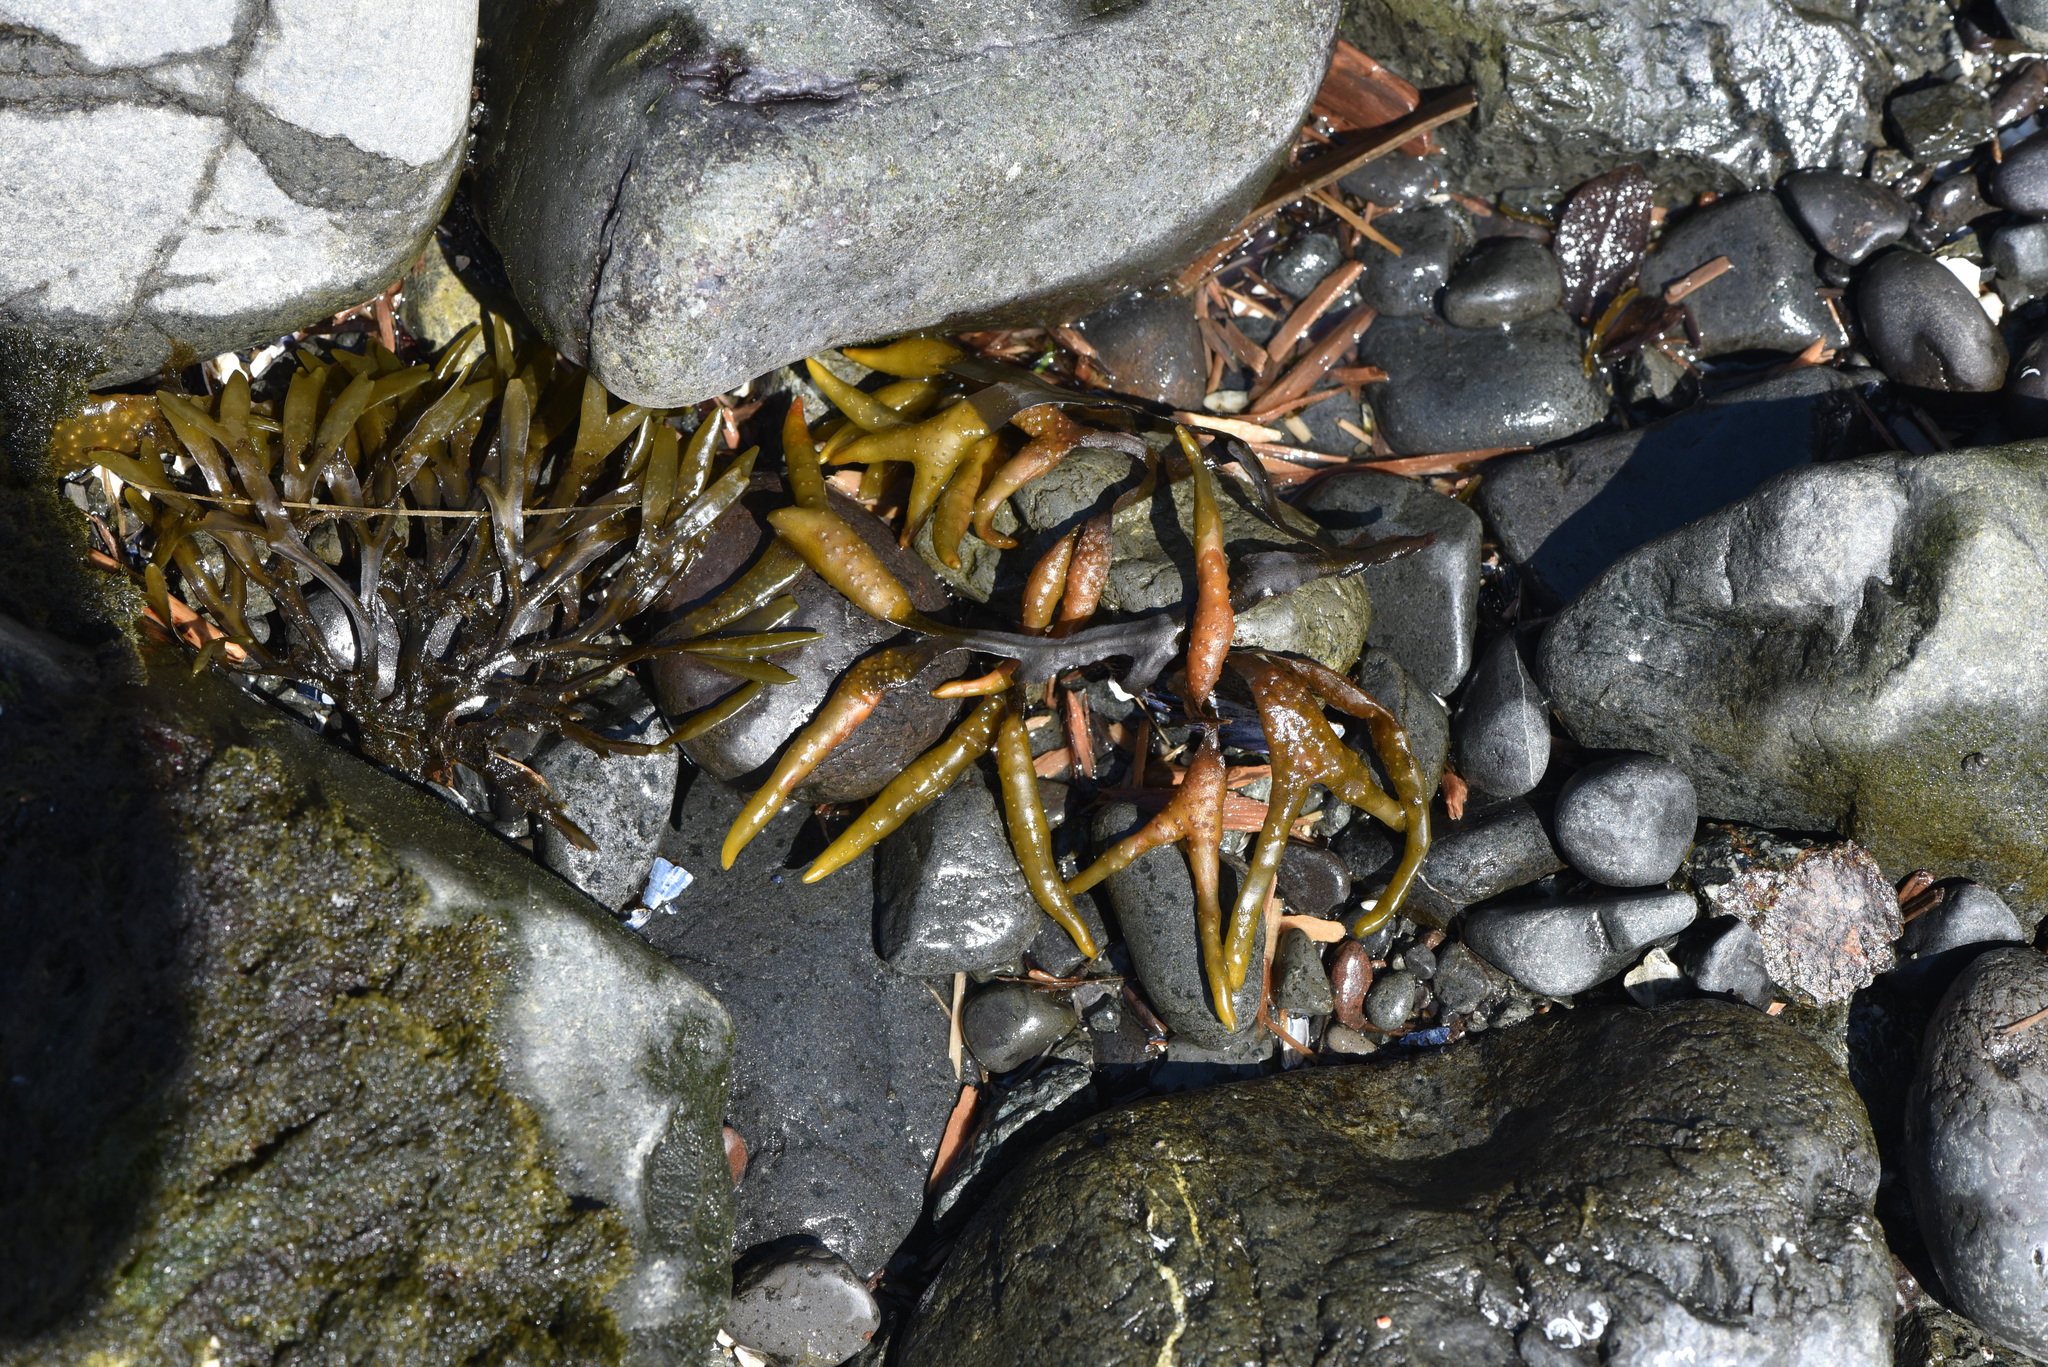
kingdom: Chromista
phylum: Ochrophyta
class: Phaeophyceae
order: Fucales
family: Fucaceae
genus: Fucus
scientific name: Fucus distichus
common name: Rockweed
